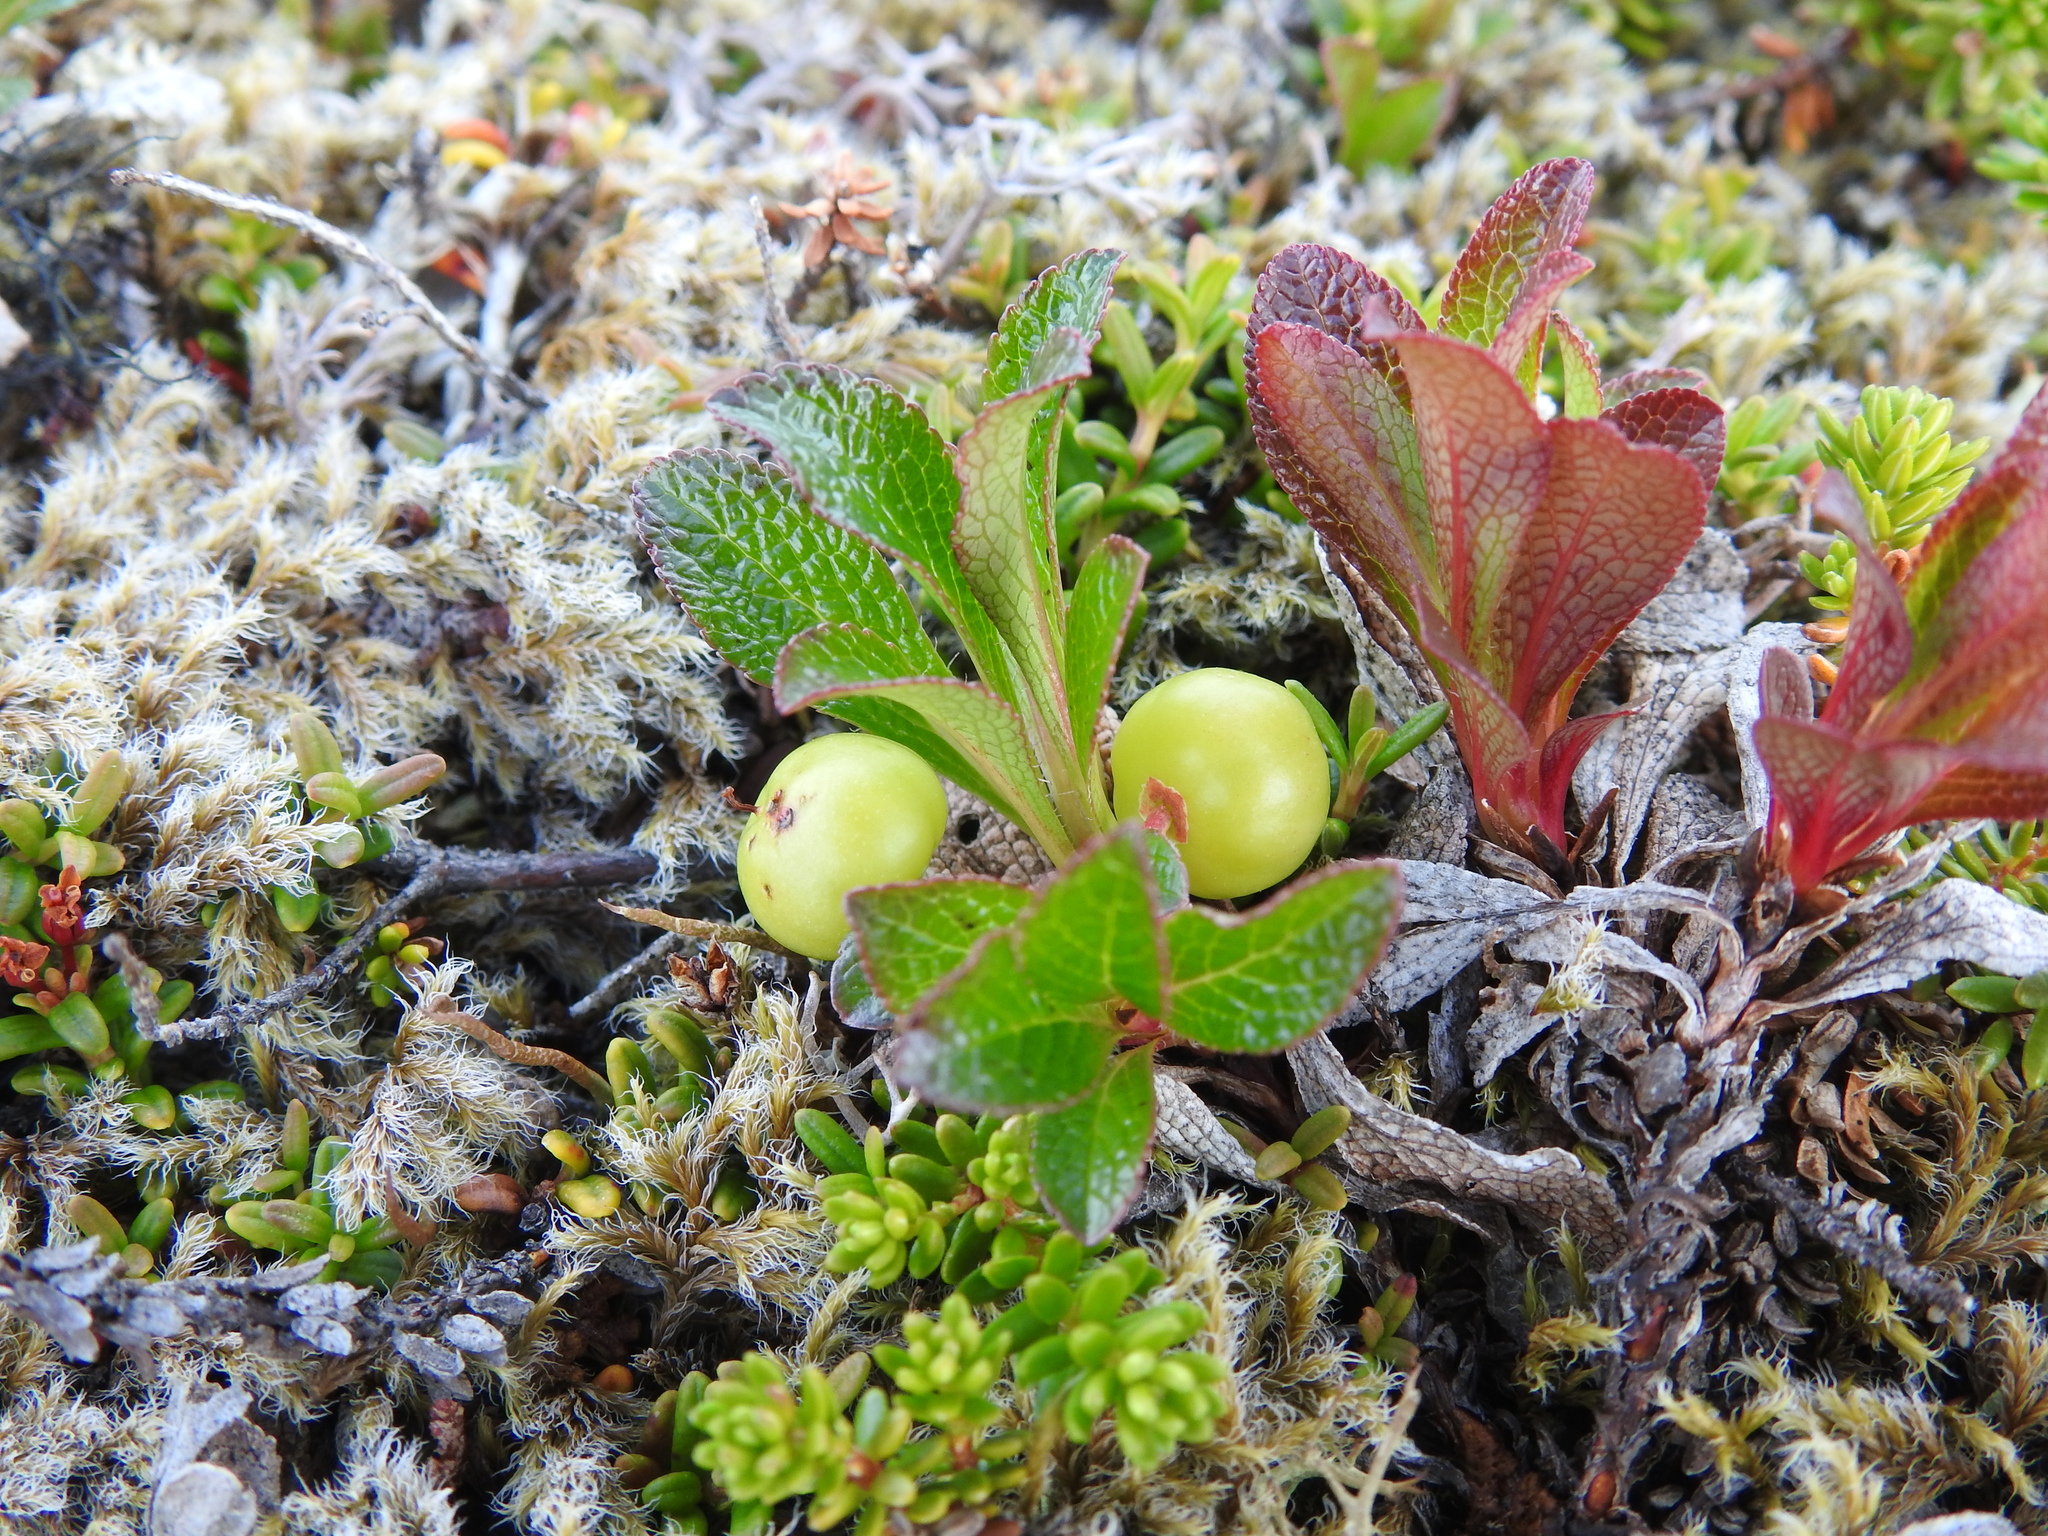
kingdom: Plantae
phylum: Tracheophyta
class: Magnoliopsida
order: Ericales
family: Ericaceae
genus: Arctostaphylos
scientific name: Arctostaphylos alpinus
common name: Alpine bearberry
